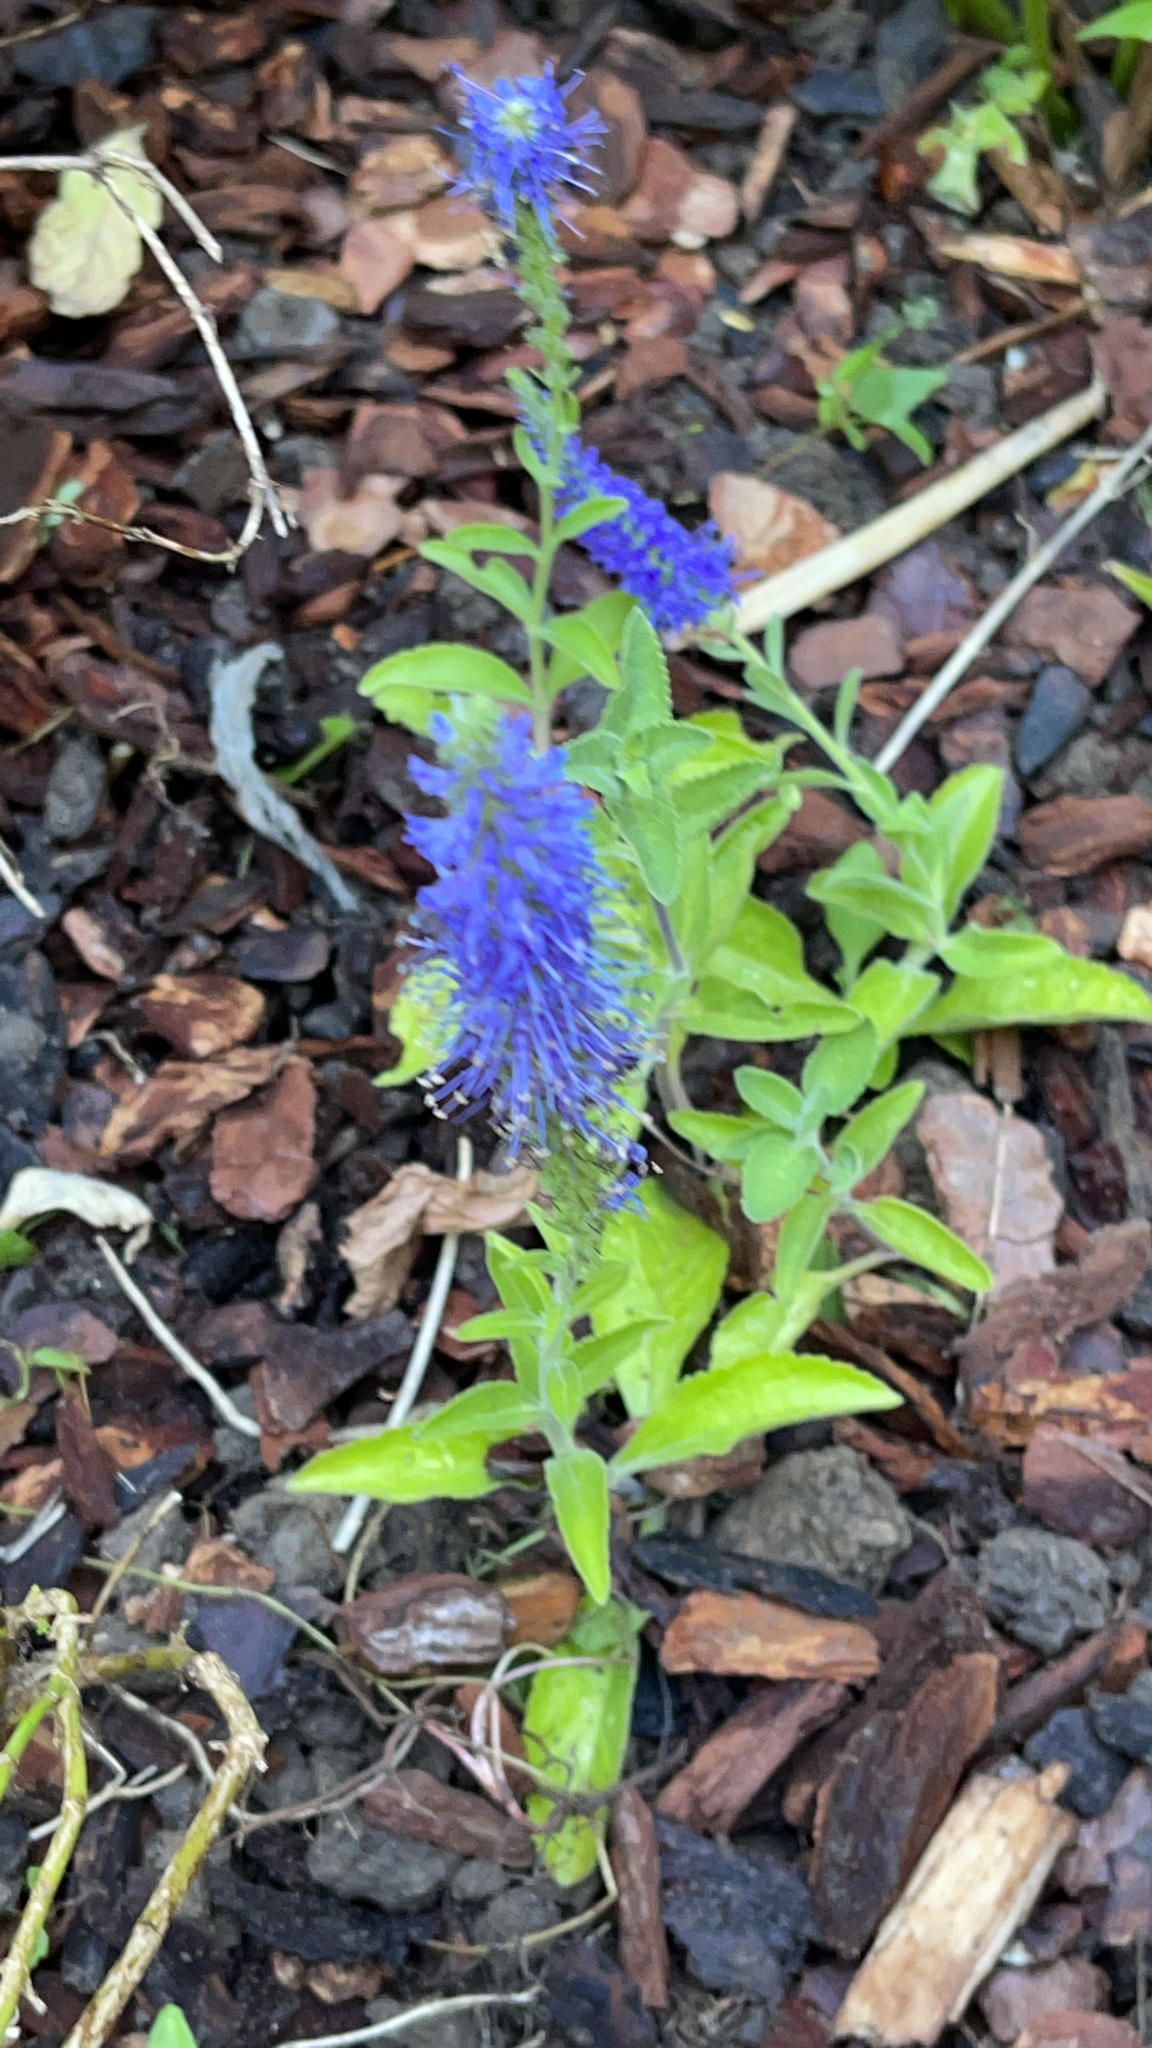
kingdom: Plantae
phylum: Tracheophyta
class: Magnoliopsida
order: Lamiales
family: Plantaginaceae
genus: Veronica
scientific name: Veronica spicata
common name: Spiked speedwell
